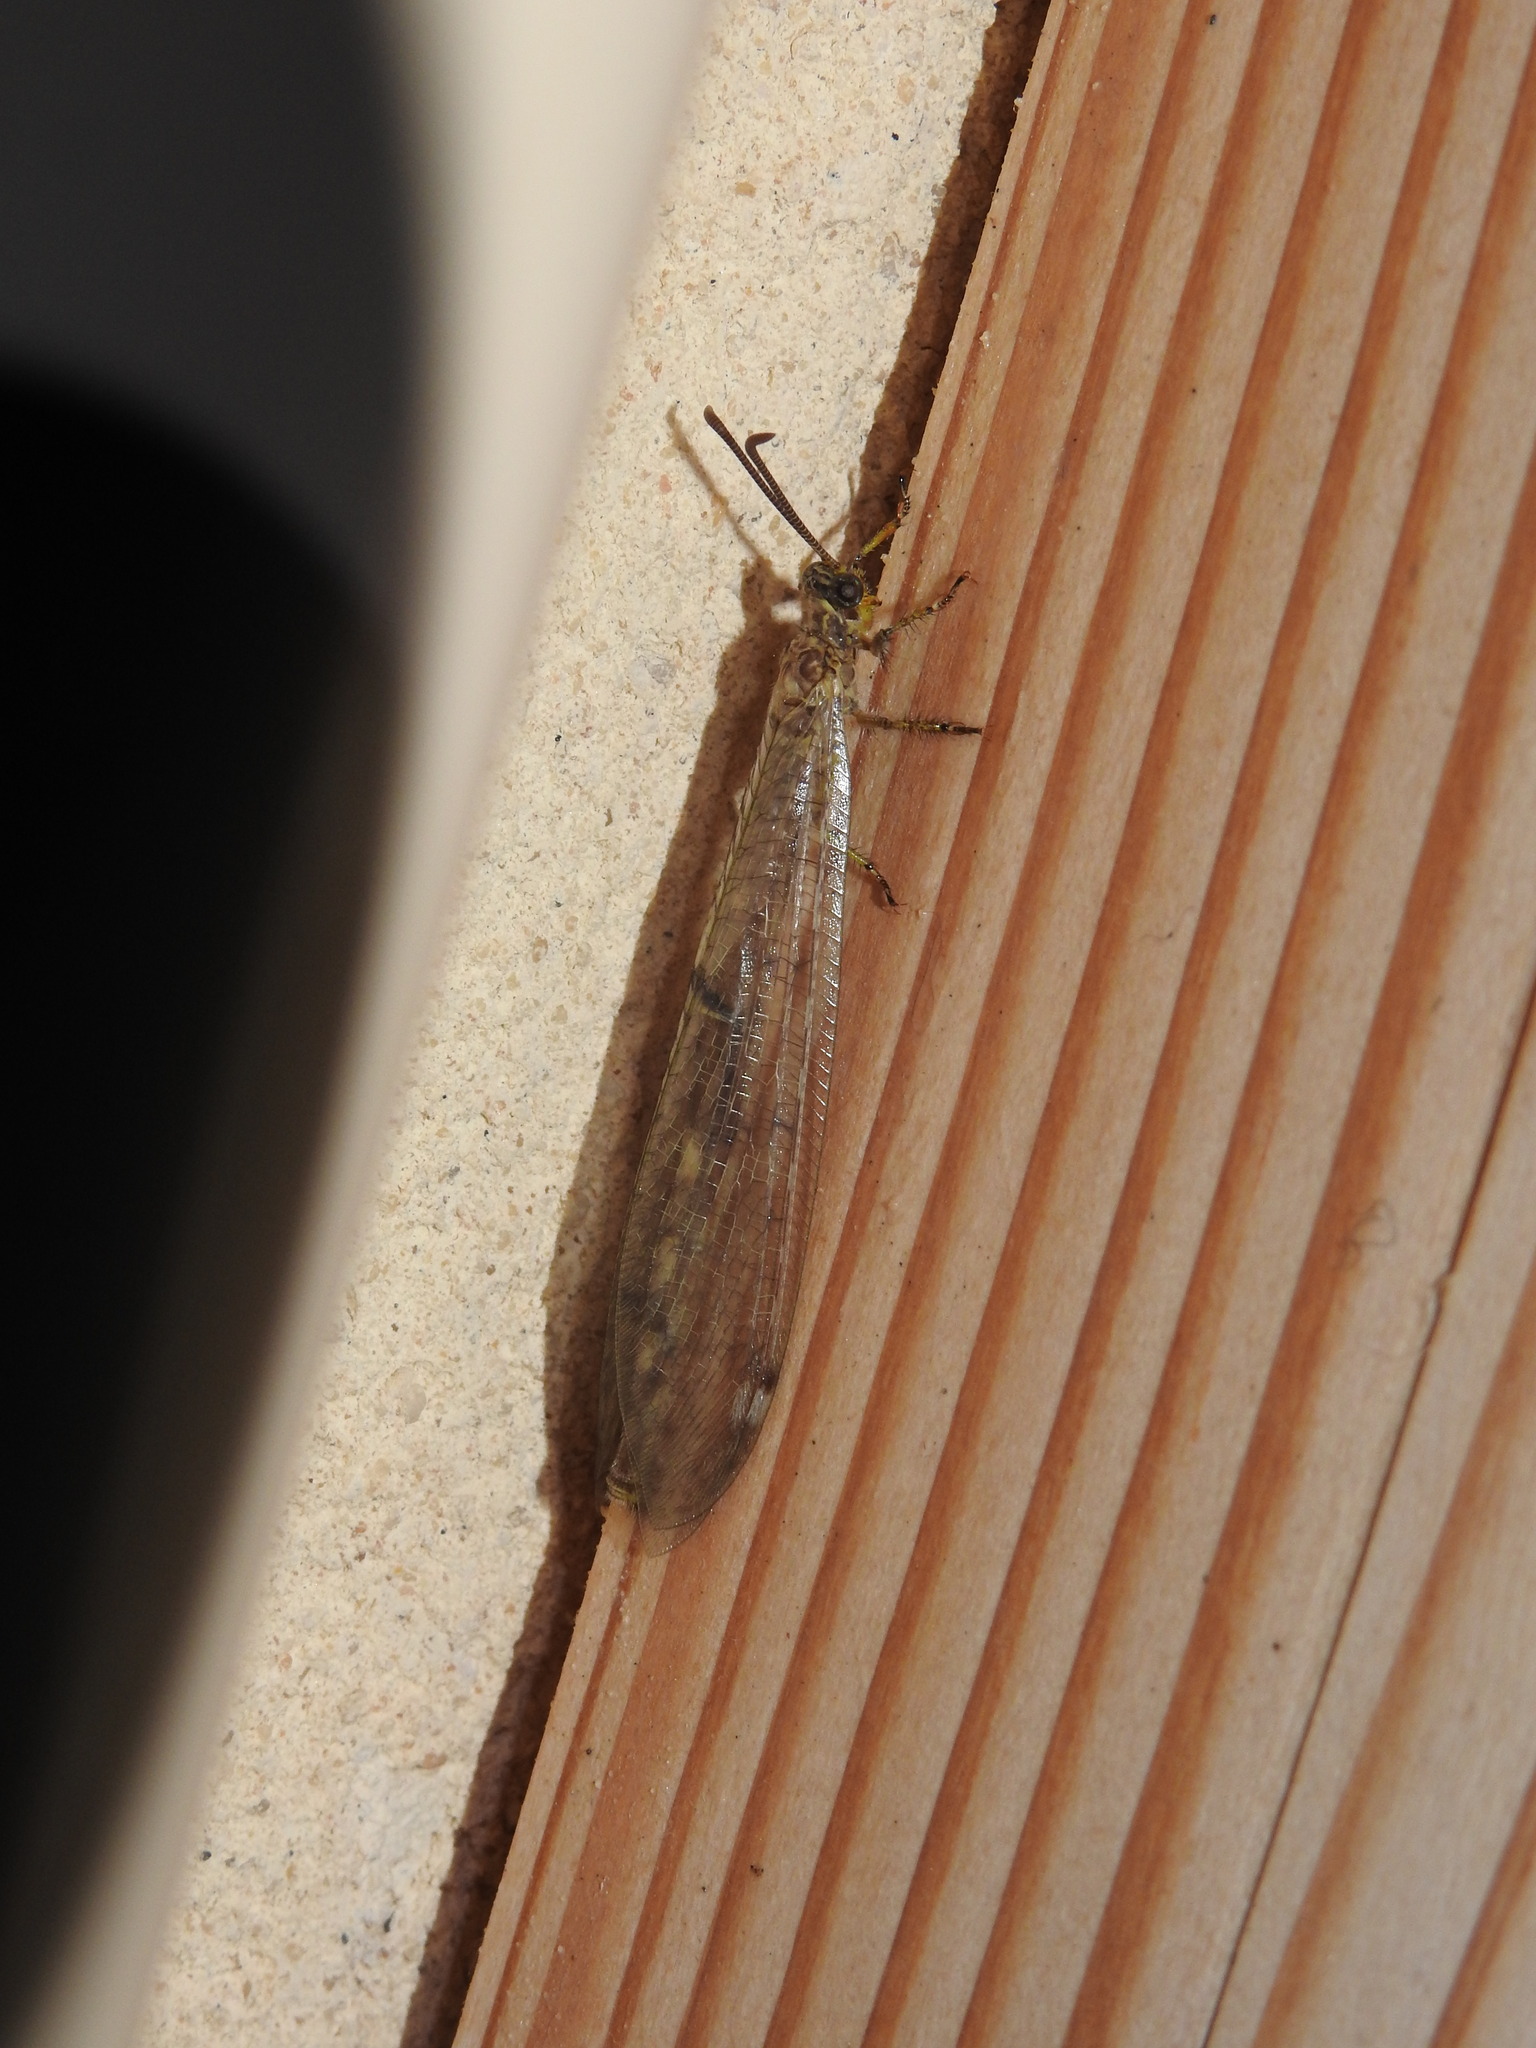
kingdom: Animalia
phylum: Arthropoda
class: Insecta
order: Neuroptera
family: Myrmeleontidae
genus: Distoleon
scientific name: Distoleon tetragrammicus
